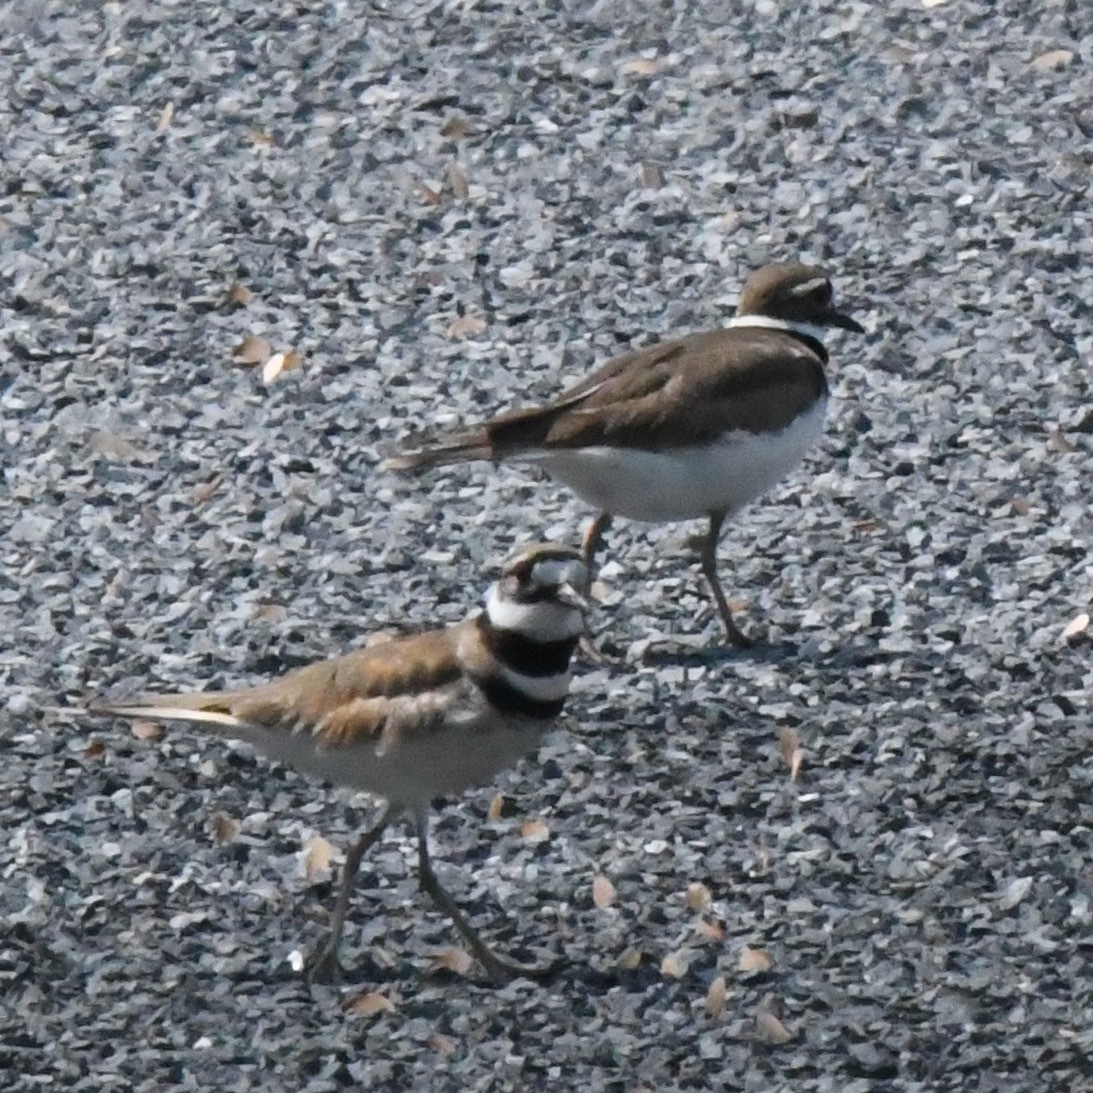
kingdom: Animalia
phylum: Chordata
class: Aves
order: Charadriiformes
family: Charadriidae
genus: Charadrius
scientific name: Charadrius vociferus
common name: Killdeer
